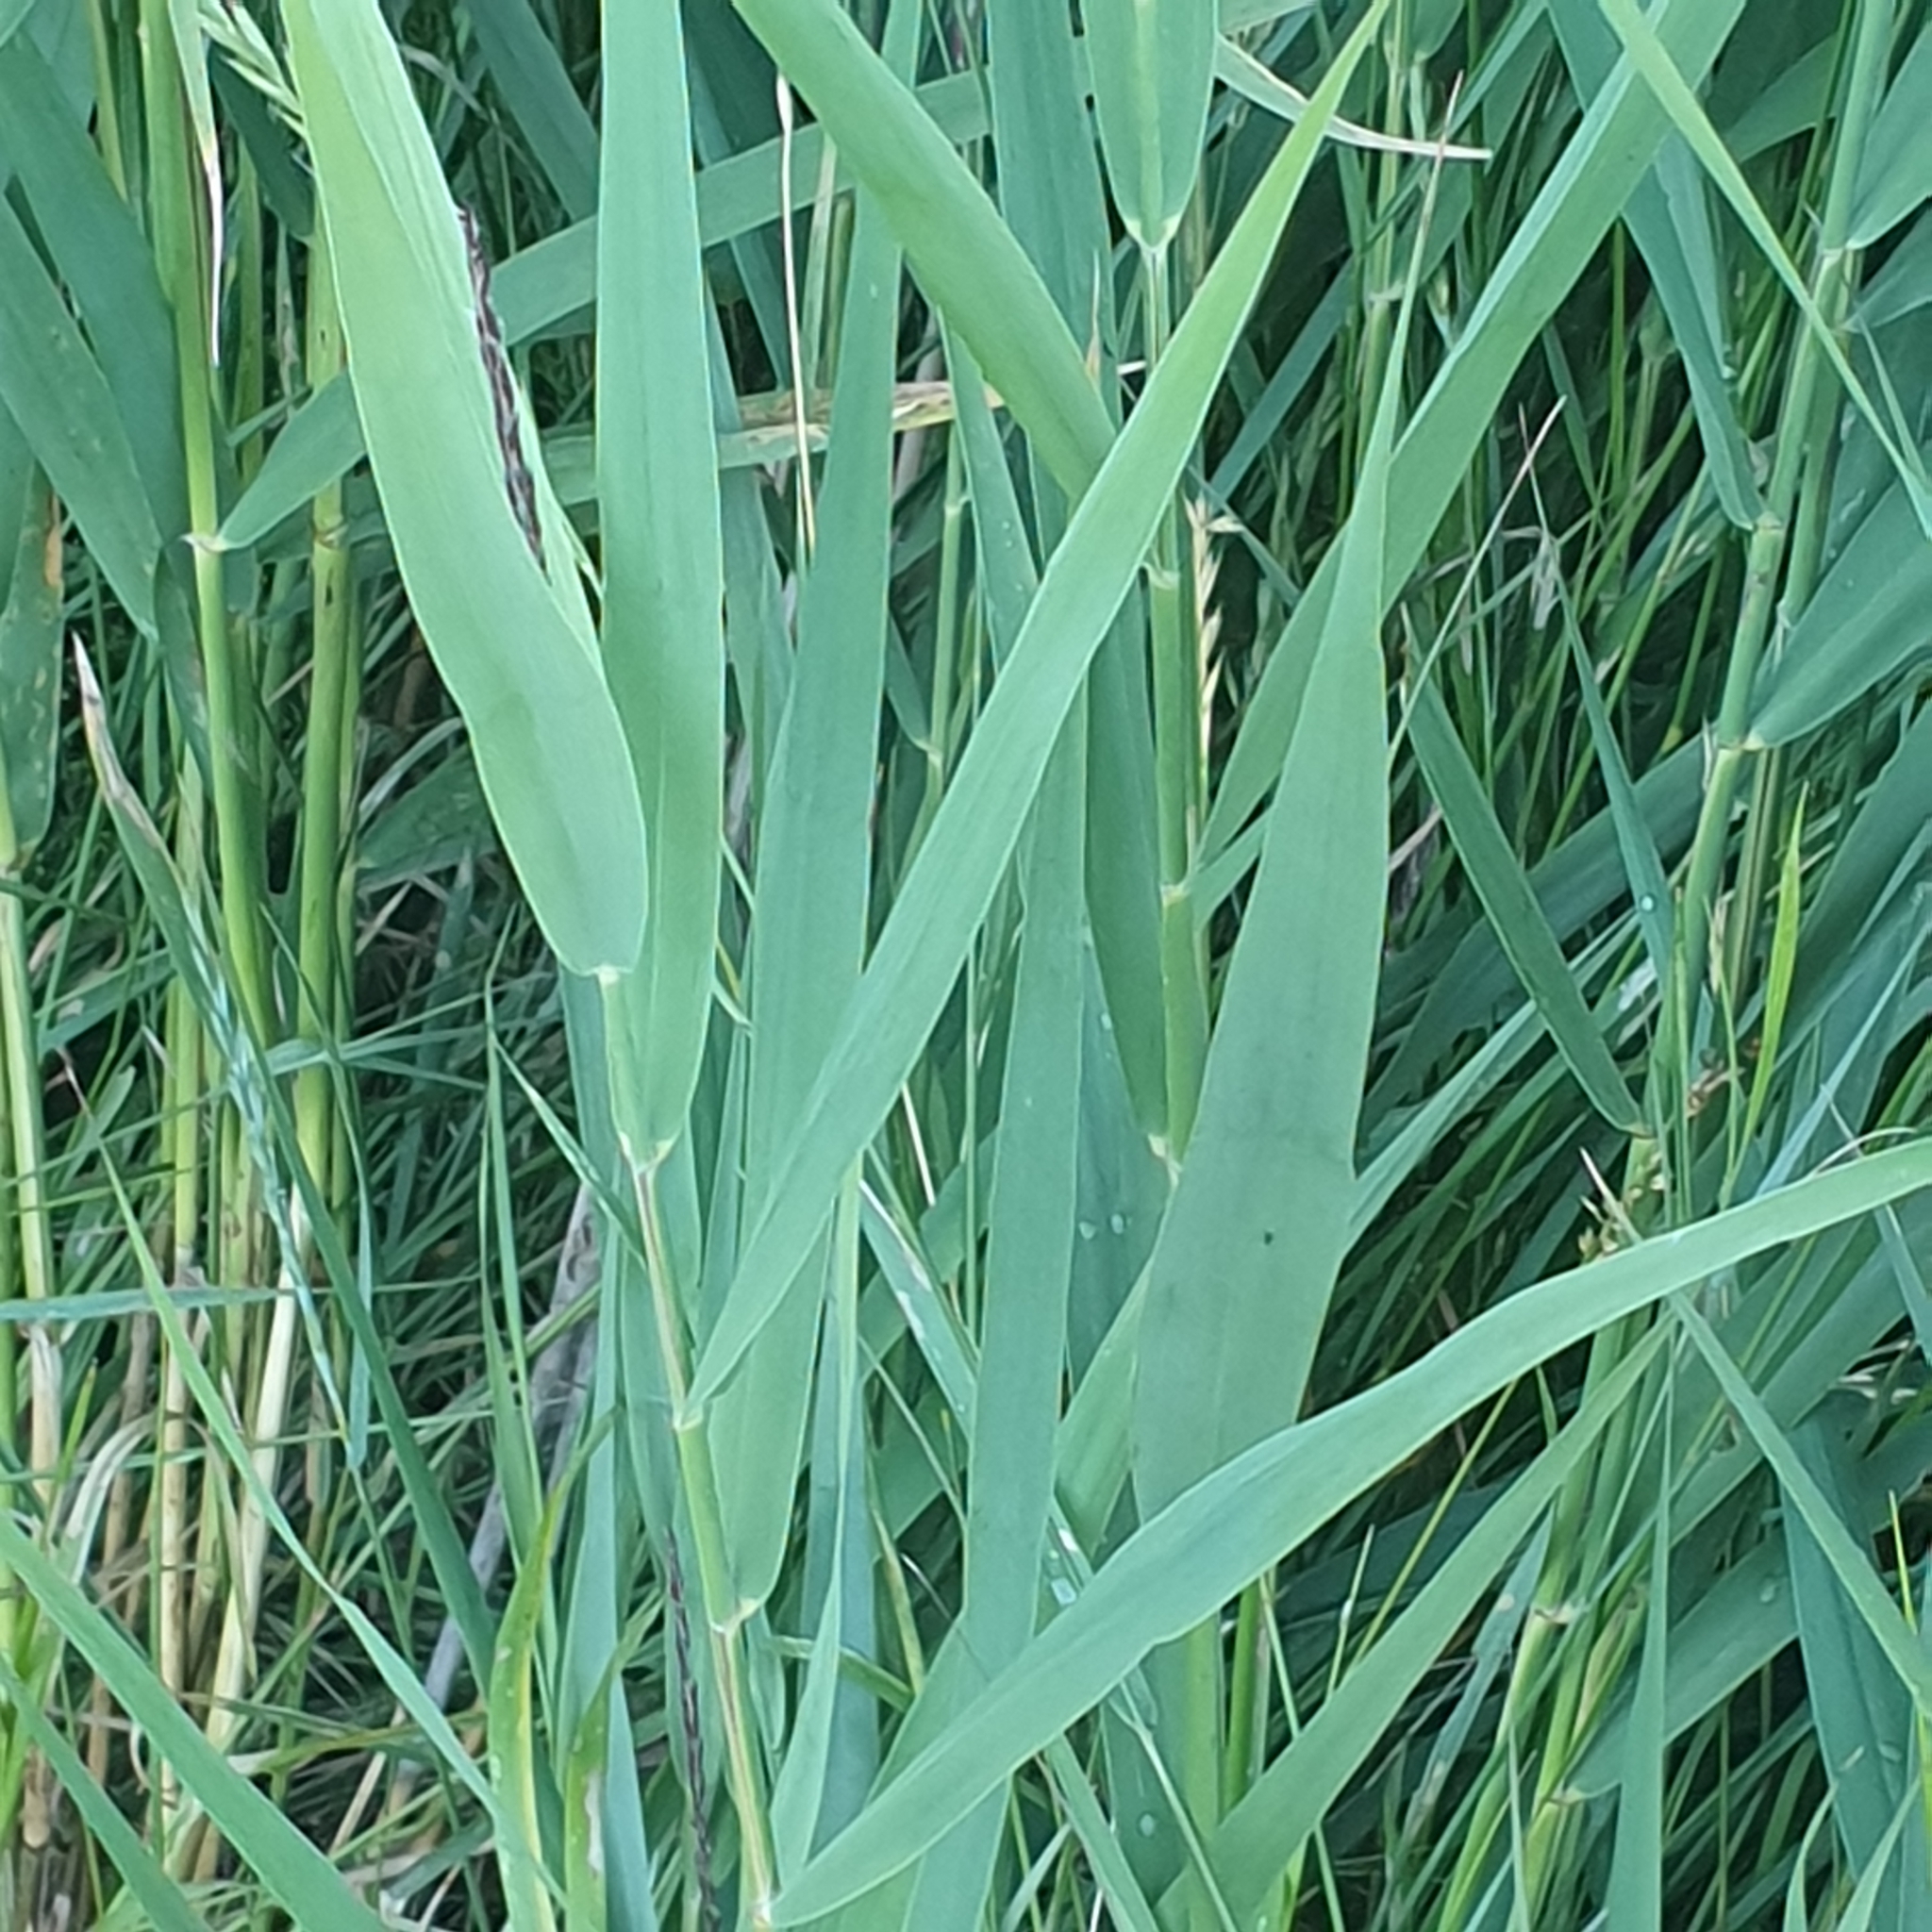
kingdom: Plantae
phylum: Tracheophyta
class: Liliopsida
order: Poales
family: Poaceae
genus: Phragmites
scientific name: Phragmites australis
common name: Common reed
